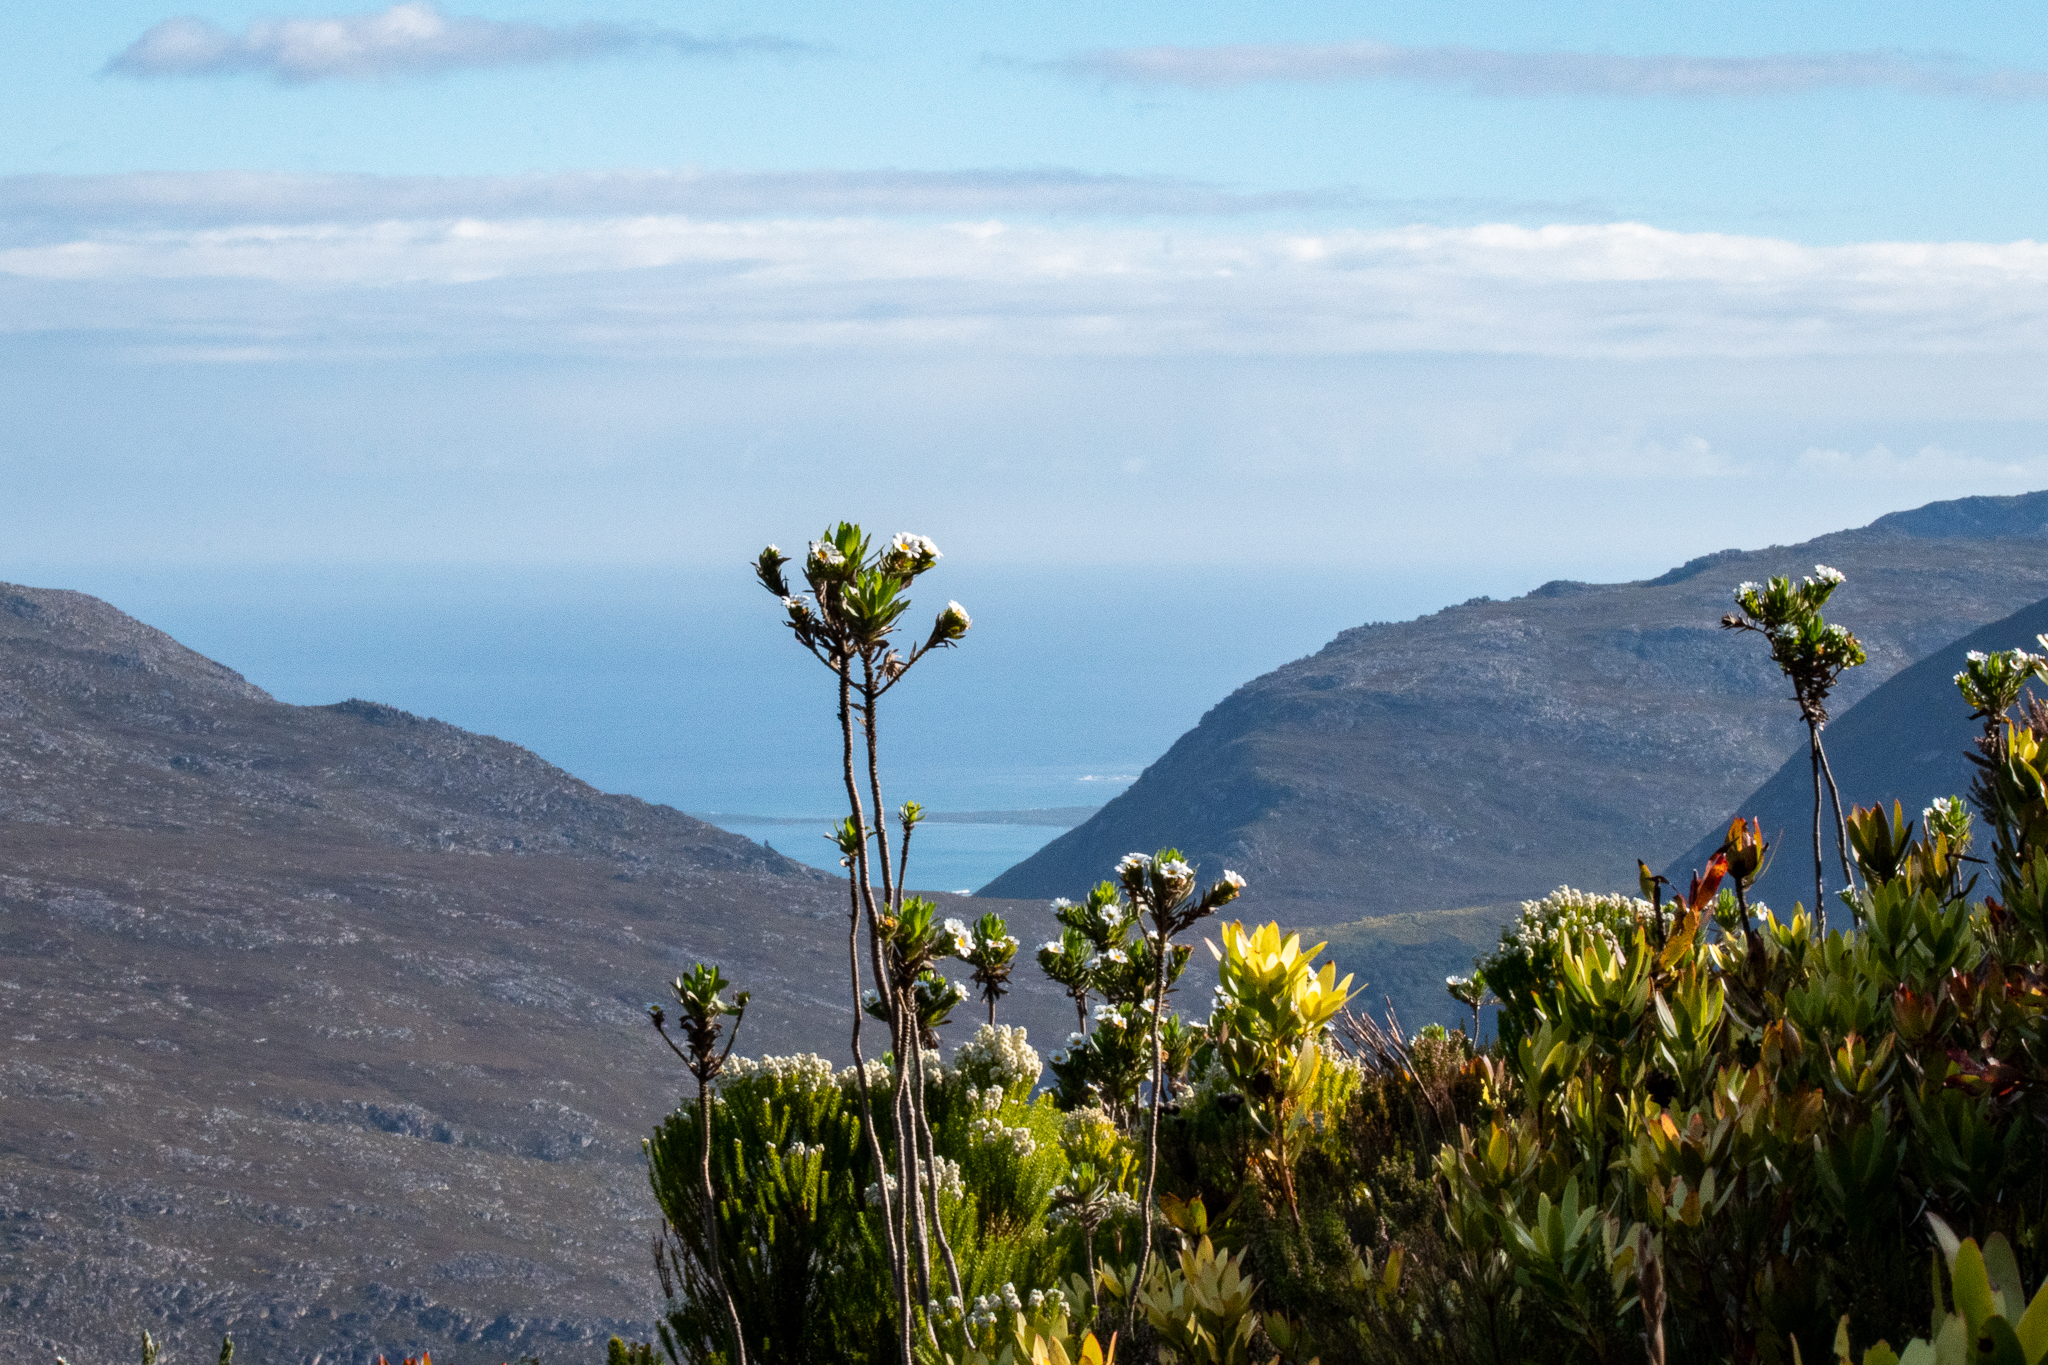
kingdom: Plantae
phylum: Tracheophyta
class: Magnoliopsida
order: Asterales
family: Asteraceae
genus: Osmitopsis
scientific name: Osmitopsis asteriscoides
